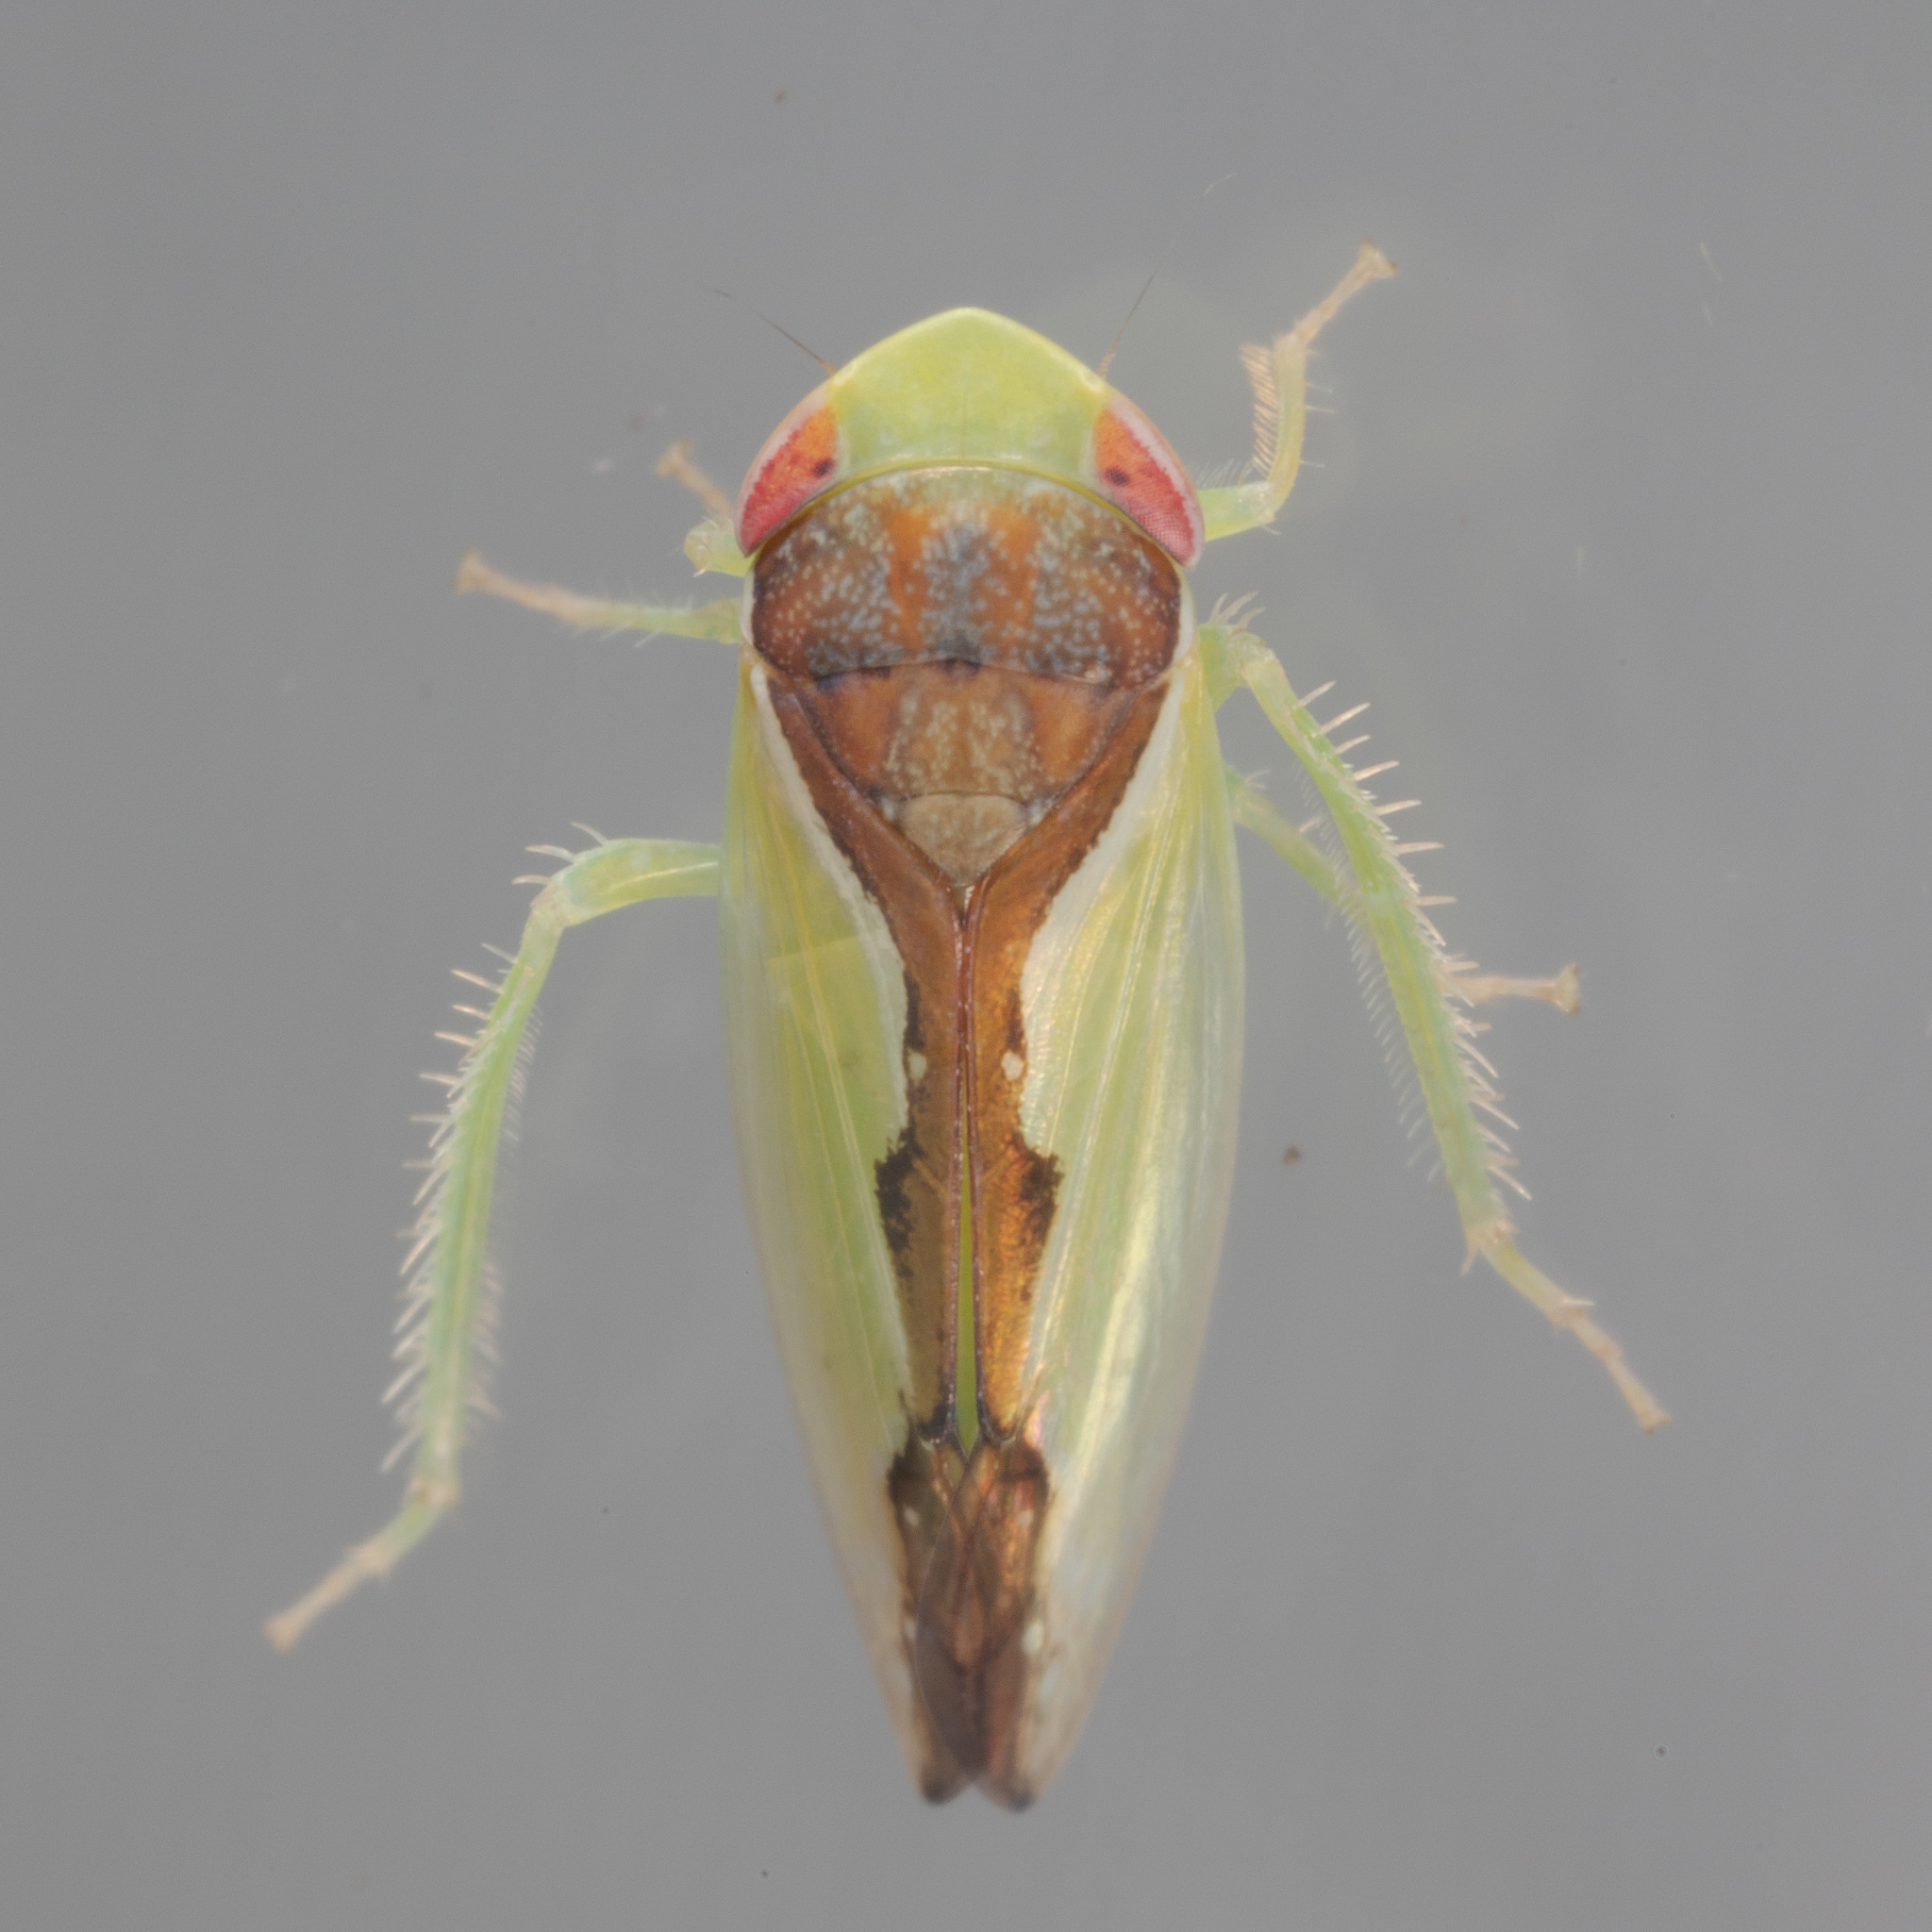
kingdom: Animalia
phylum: Arthropoda
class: Insecta
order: Hemiptera
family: Cicadellidae
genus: Omansobara ing
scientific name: Omansobara ing Omansobara palliolata
